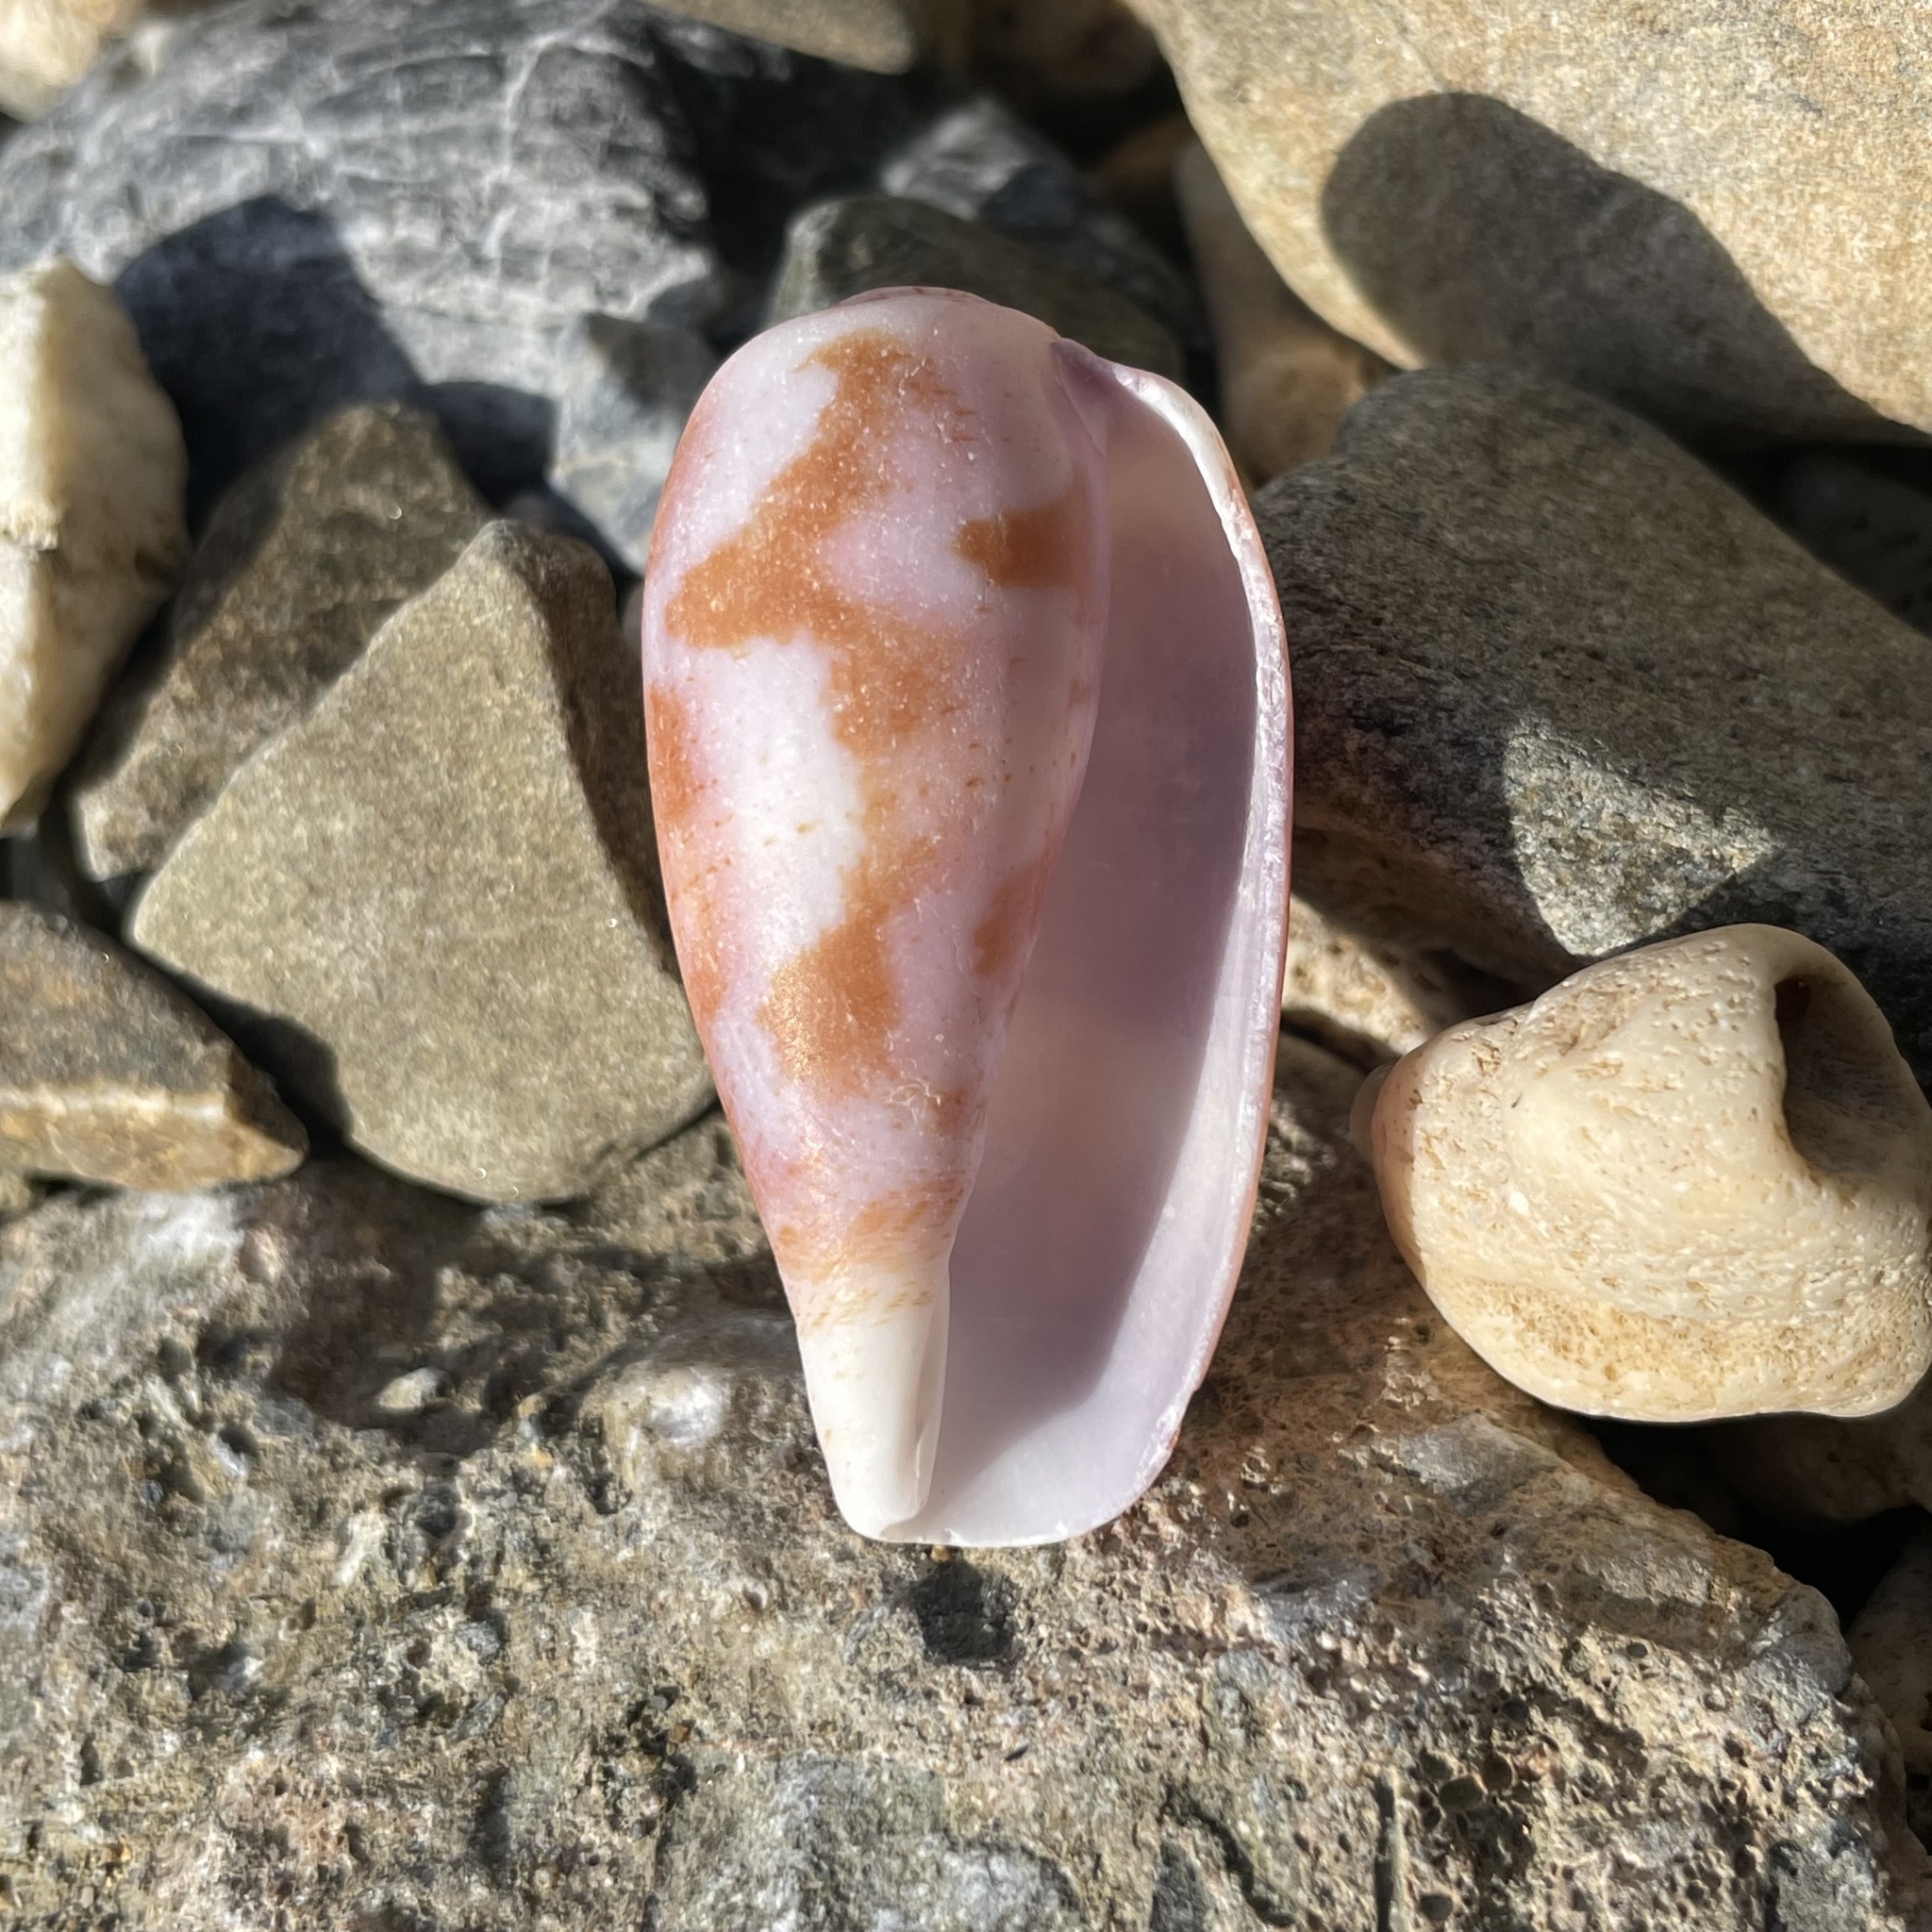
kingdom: Animalia
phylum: Mollusca
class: Gastropoda
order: Neogastropoda
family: Conidae
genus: Conus
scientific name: Conus tulipa
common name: Tulip cone
